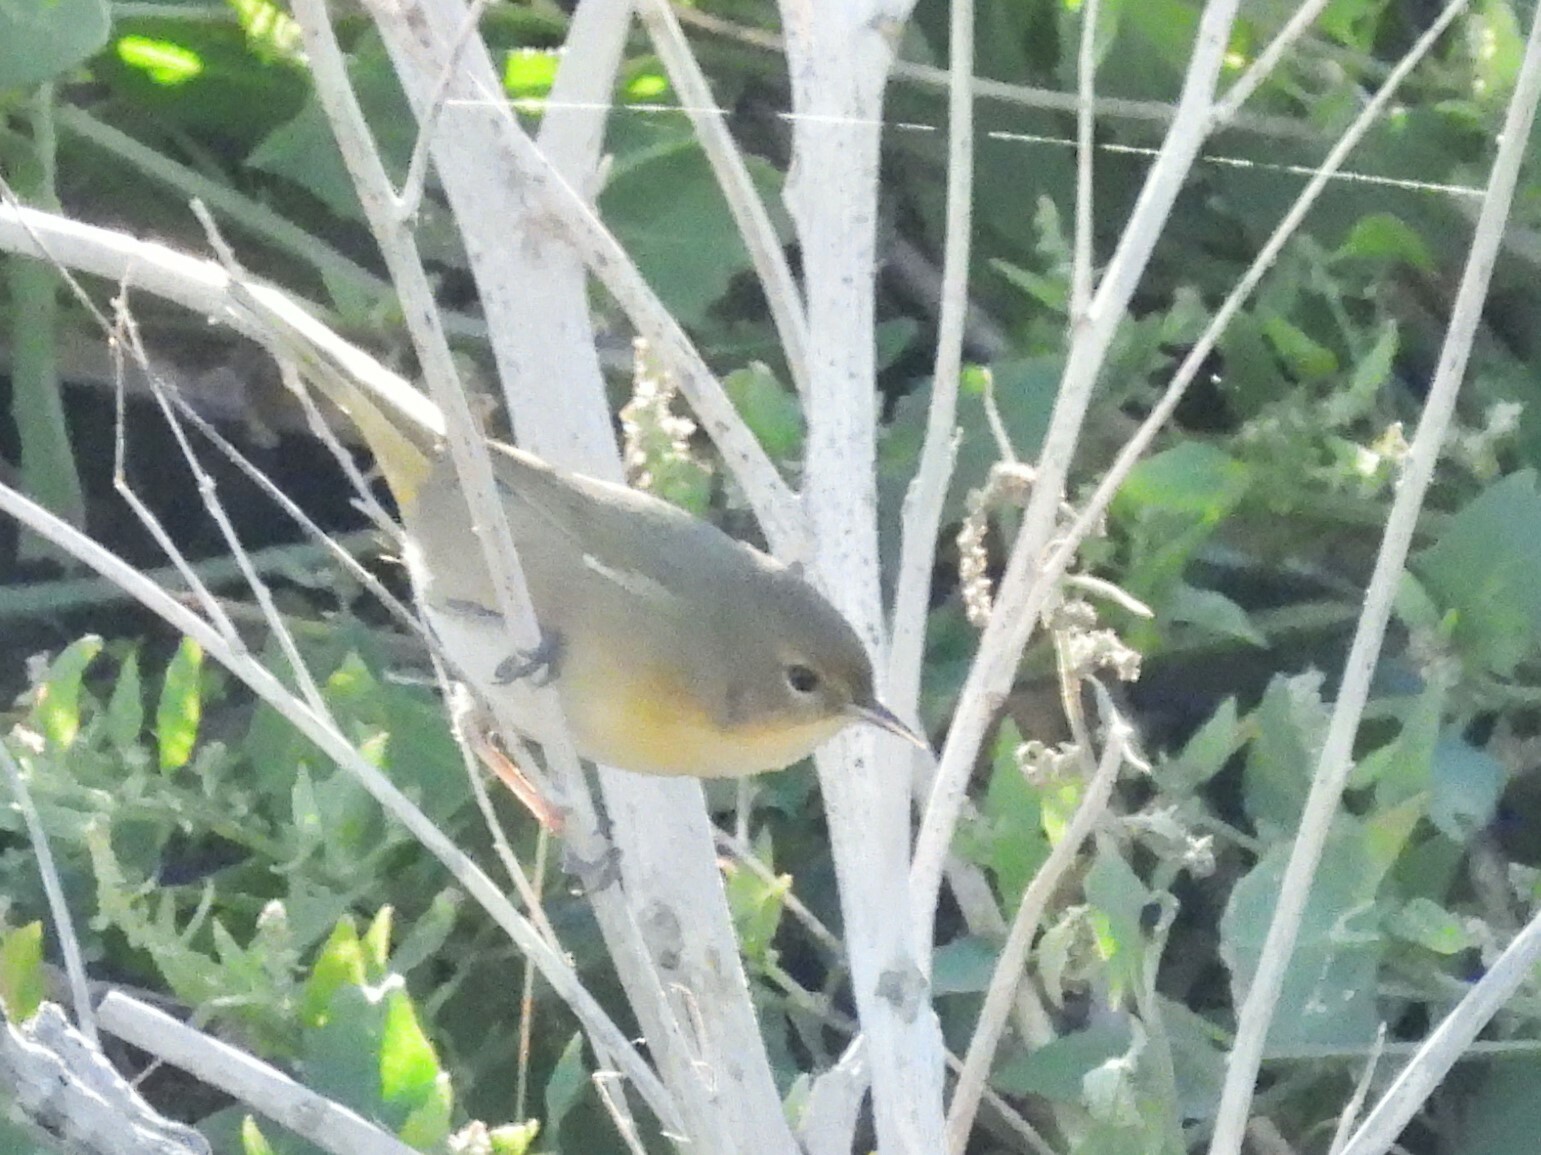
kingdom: Animalia
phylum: Chordata
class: Aves
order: Passeriformes
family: Parulidae
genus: Geothlypis
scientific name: Geothlypis trichas
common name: Common yellowthroat
